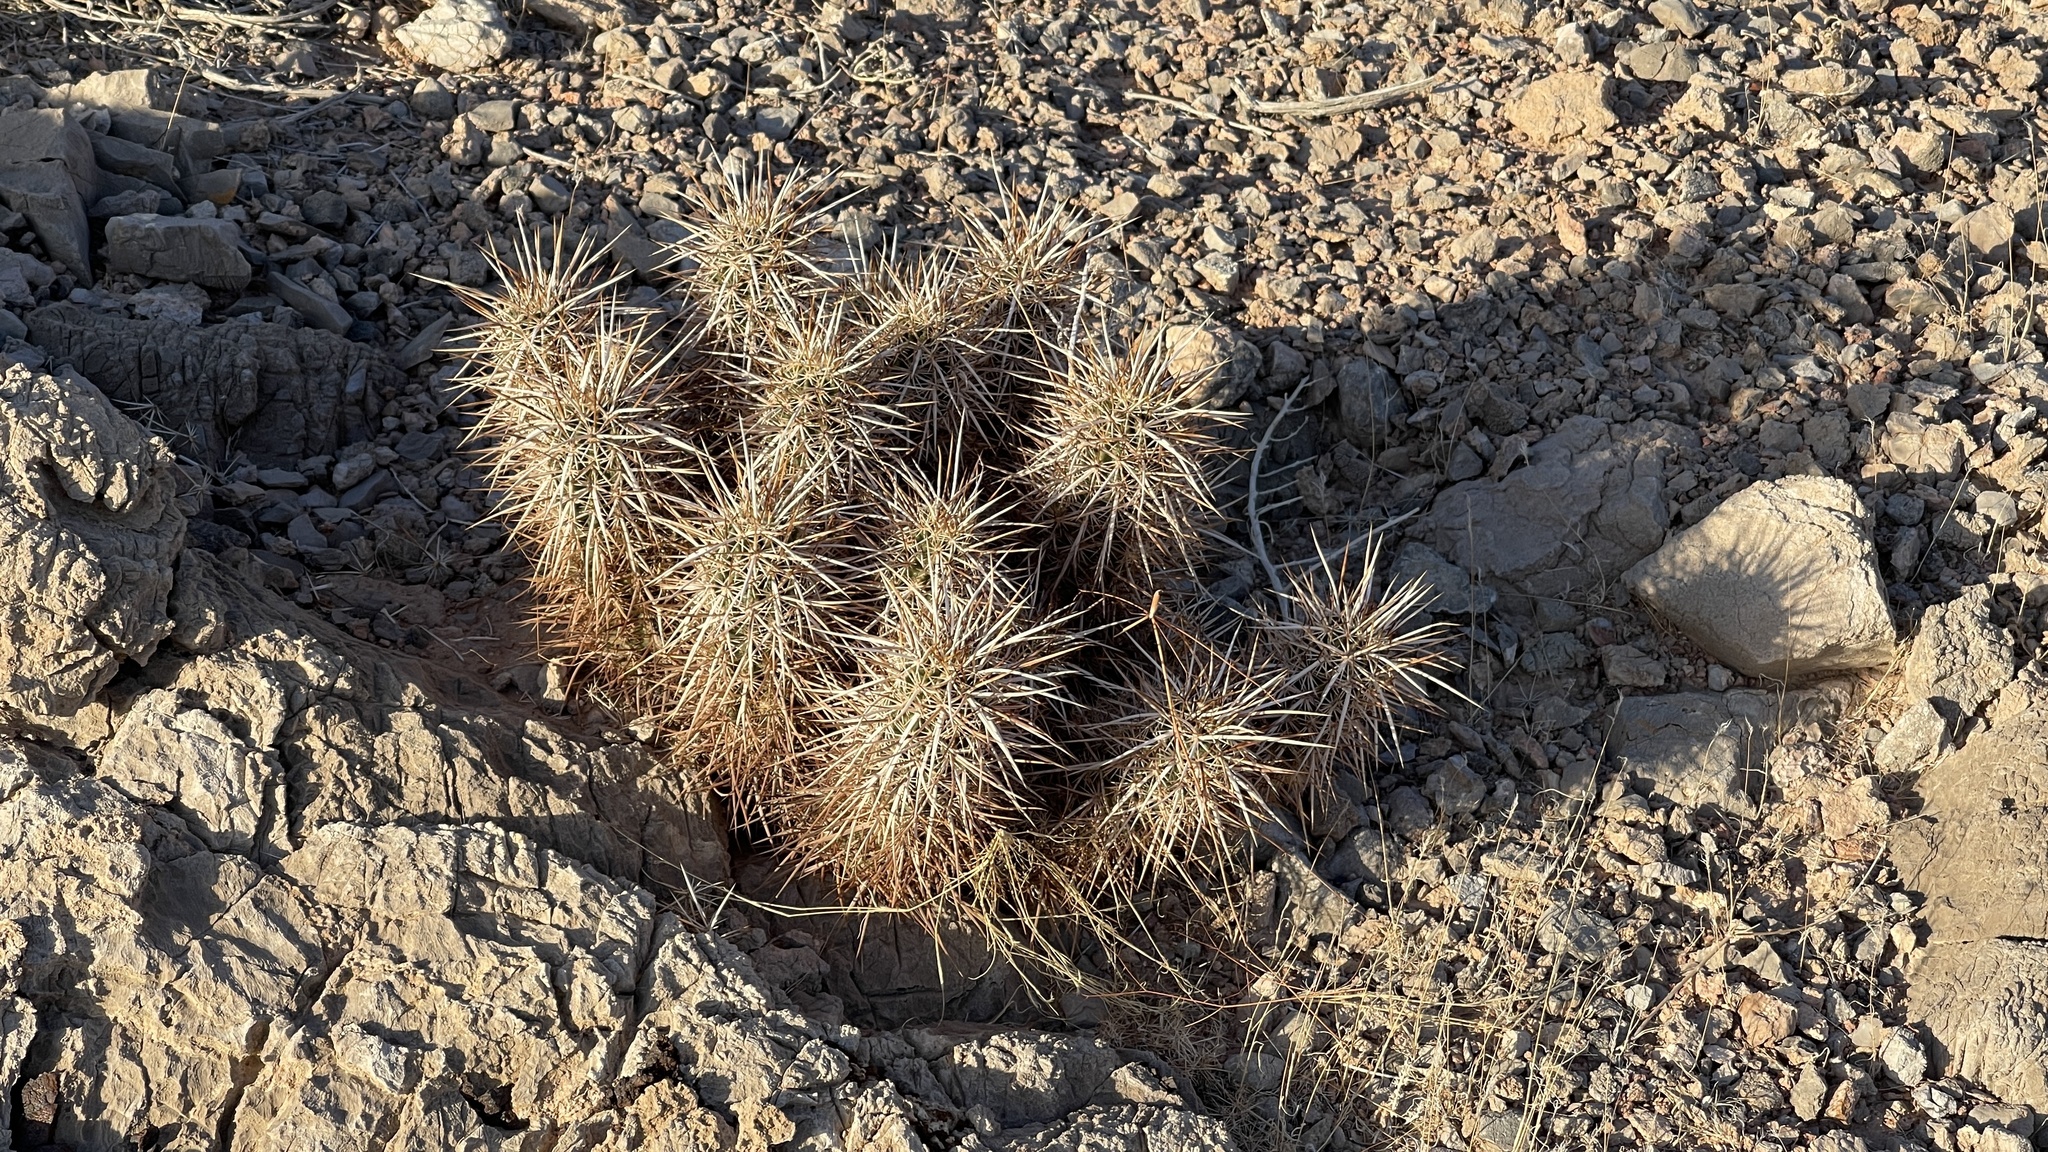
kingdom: Plantae
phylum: Tracheophyta
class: Magnoliopsida
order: Caryophyllales
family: Cactaceae
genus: Echinocereus
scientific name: Echinocereus engelmannii
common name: Engelmann's hedgehog cactus
